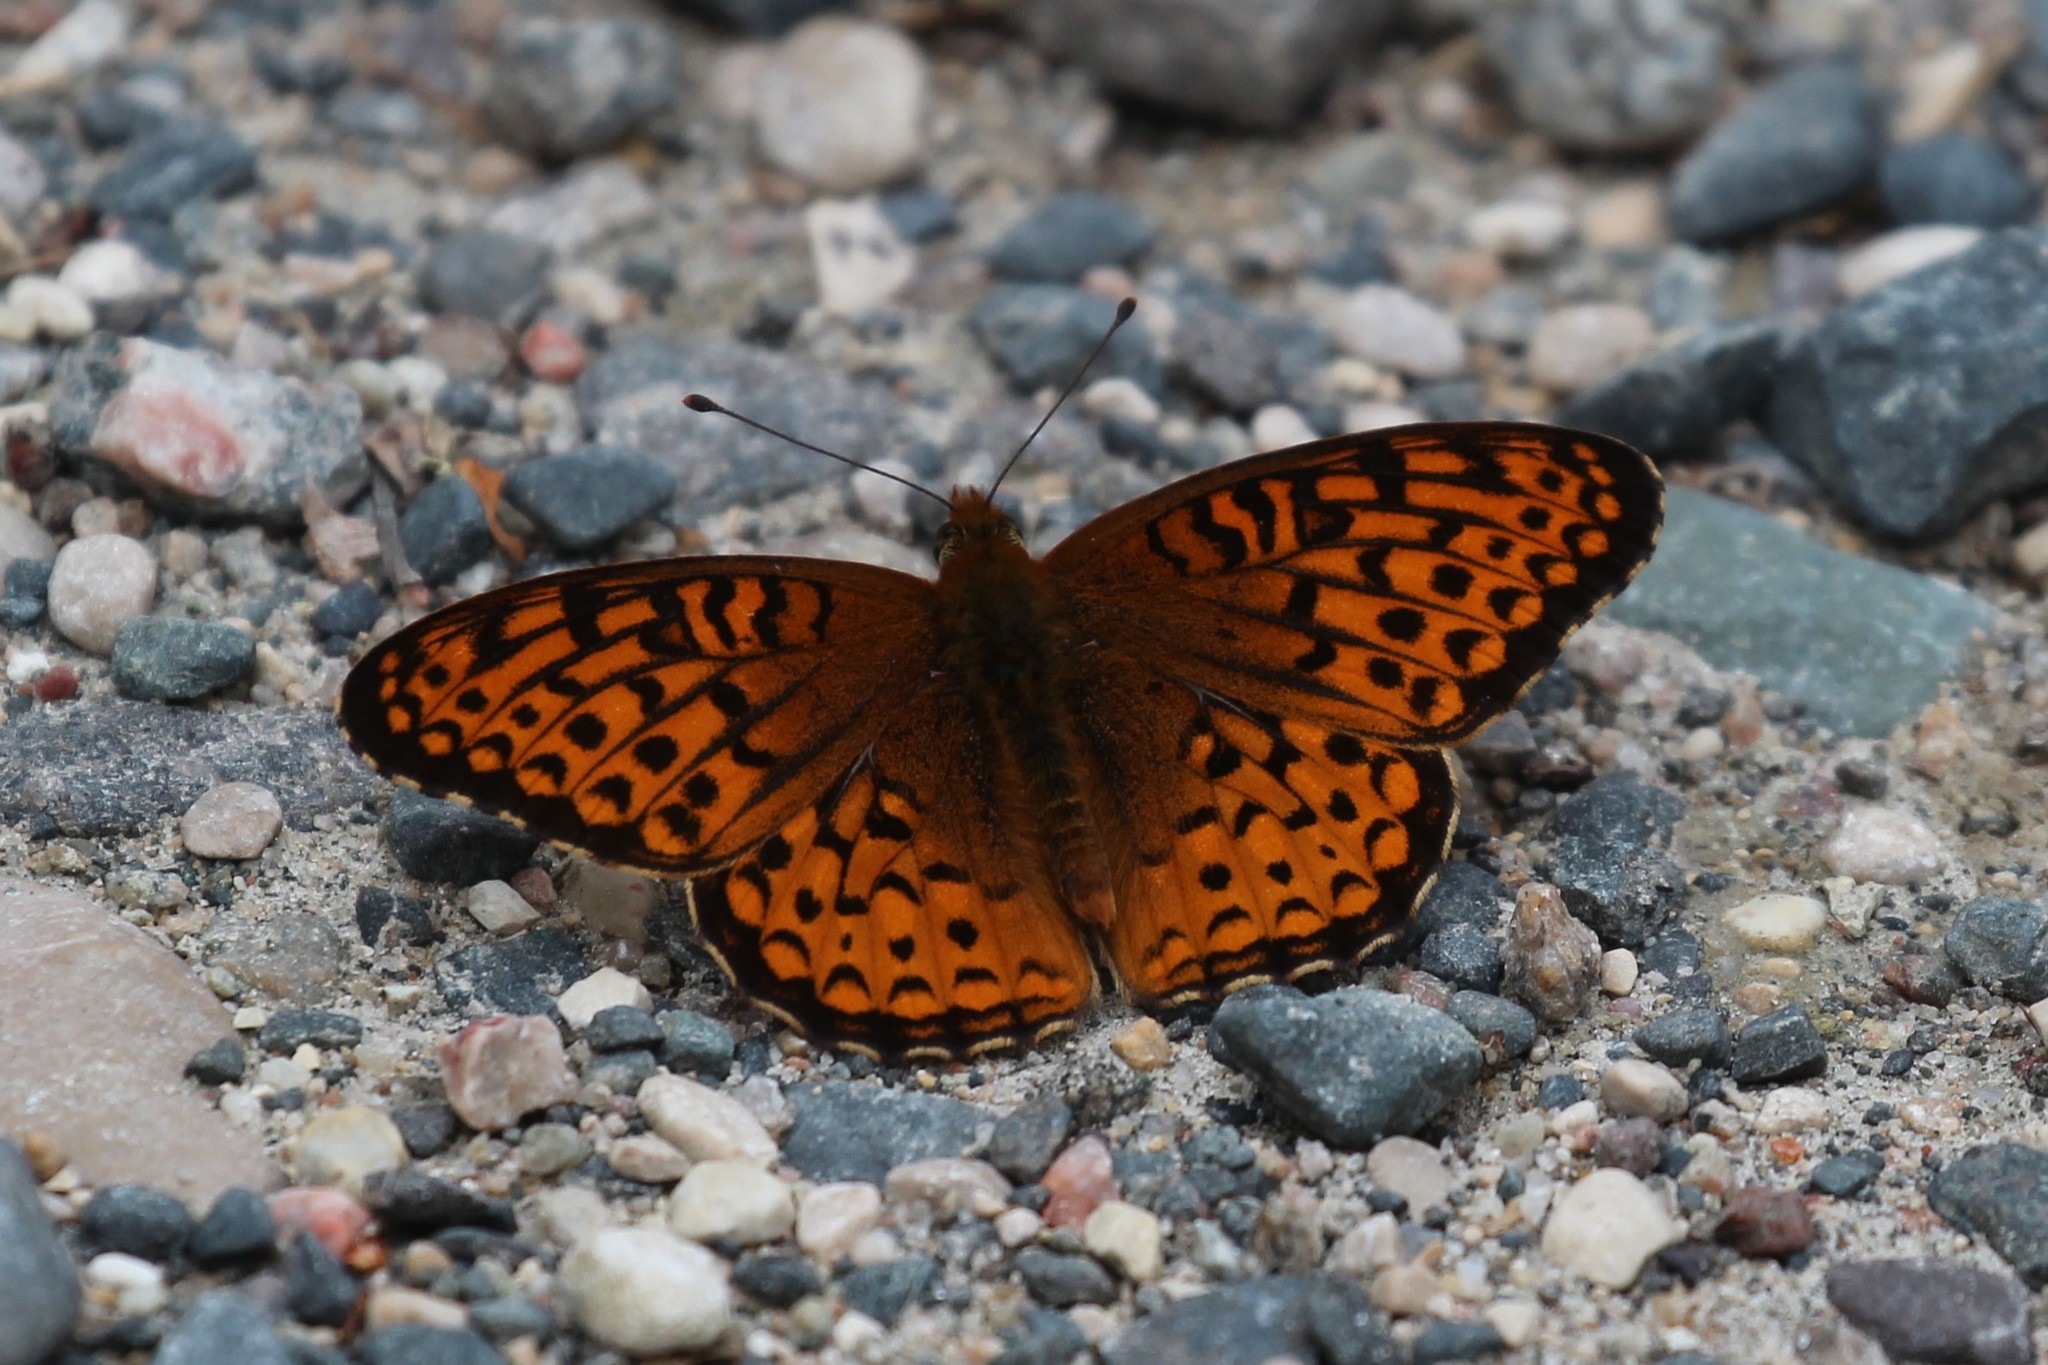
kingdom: Animalia
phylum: Arthropoda
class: Insecta
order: Lepidoptera
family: Nymphalidae
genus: Speyeria
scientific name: Speyeria atlantis
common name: Atlantis fritillary
